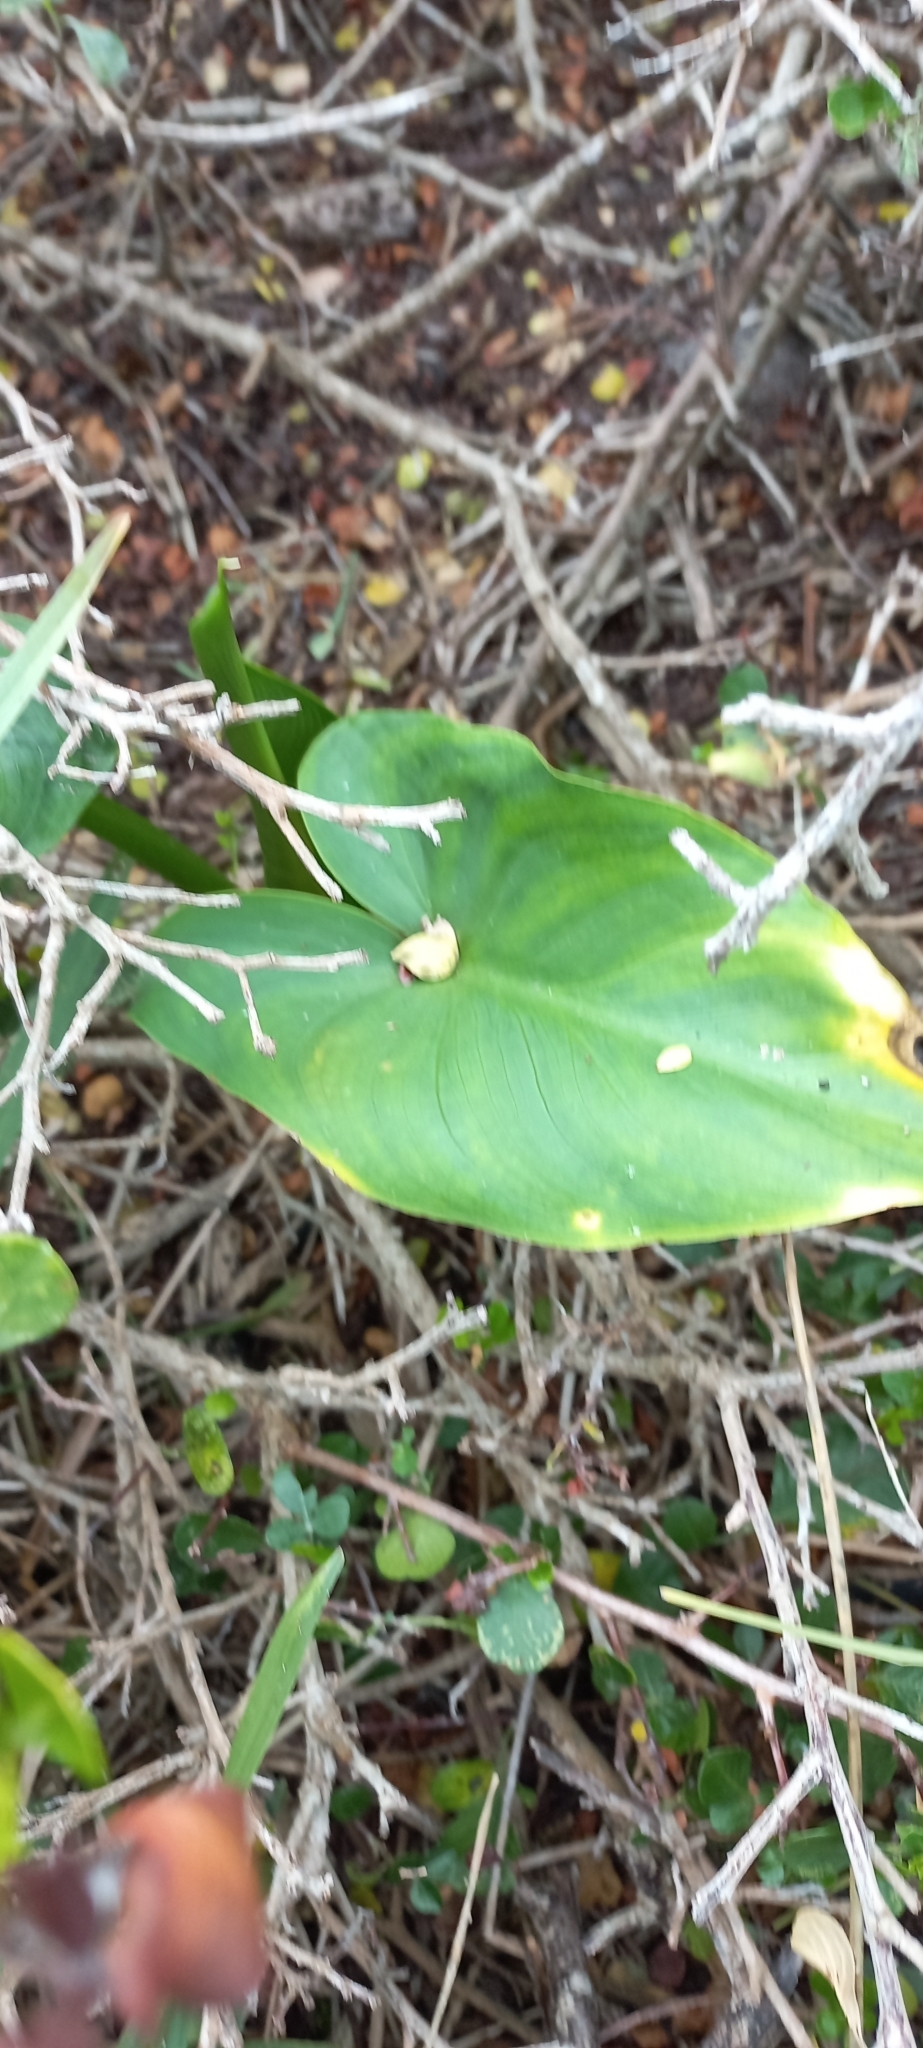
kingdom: Plantae
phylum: Tracheophyta
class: Liliopsida
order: Alismatales
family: Araceae
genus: Zantedeschia
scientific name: Zantedeschia aethiopica
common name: Altar-lily
